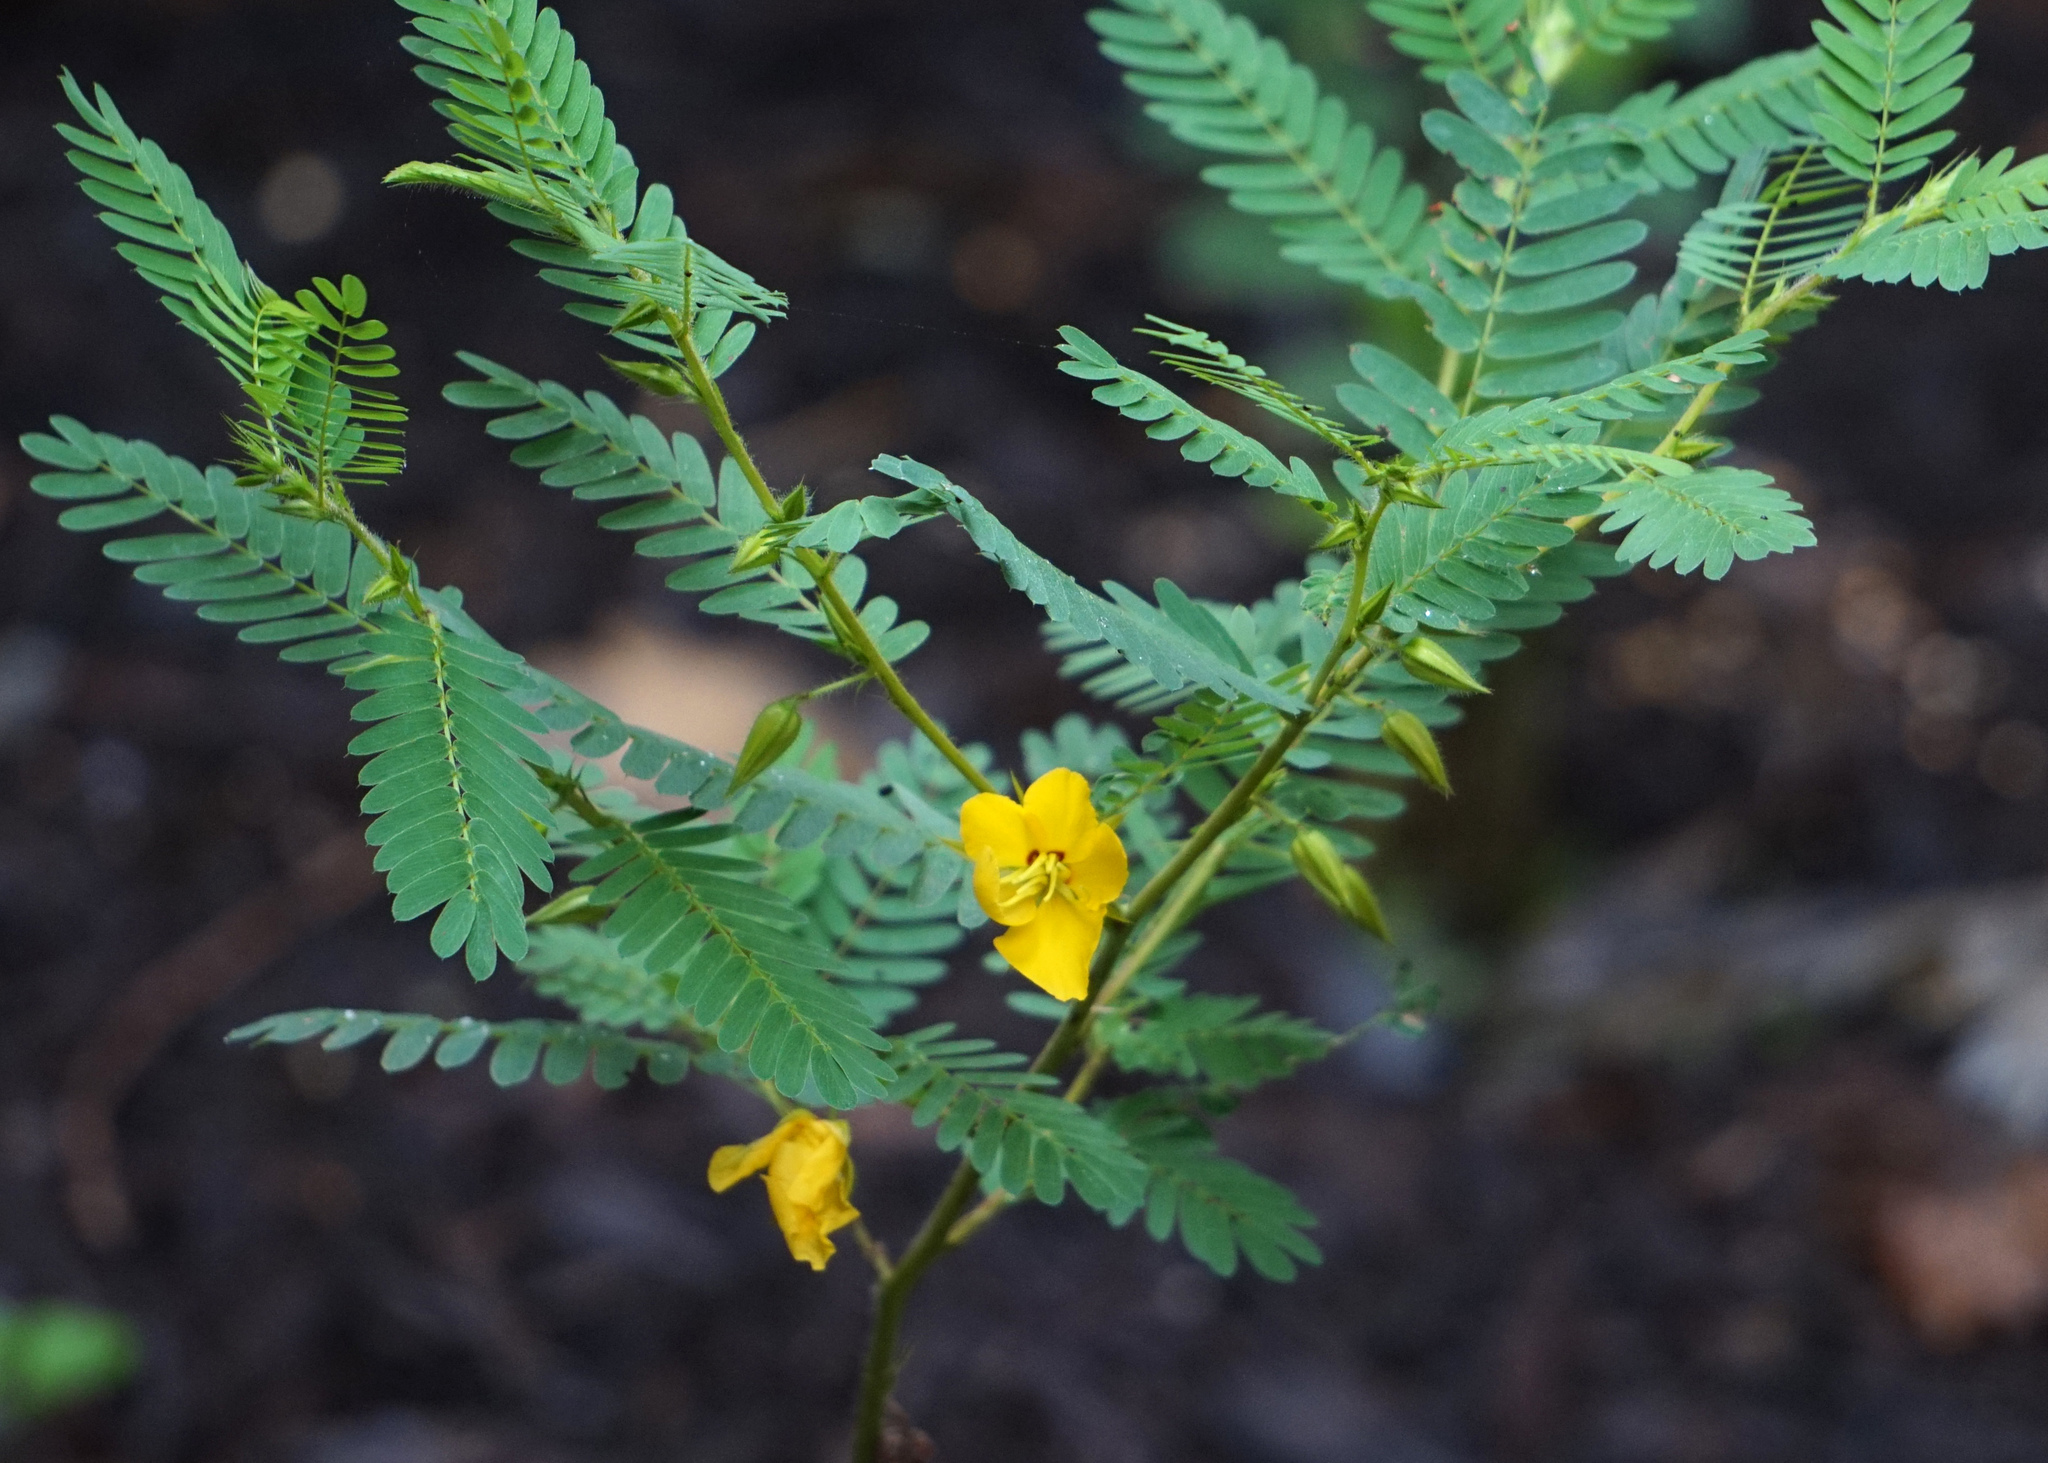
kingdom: Plantae
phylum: Tracheophyta
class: Magnoliopsida
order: Fabales
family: Fabaceae
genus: Chamaecrista
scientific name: Chamaecrista fasciculata
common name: Golden cassia
